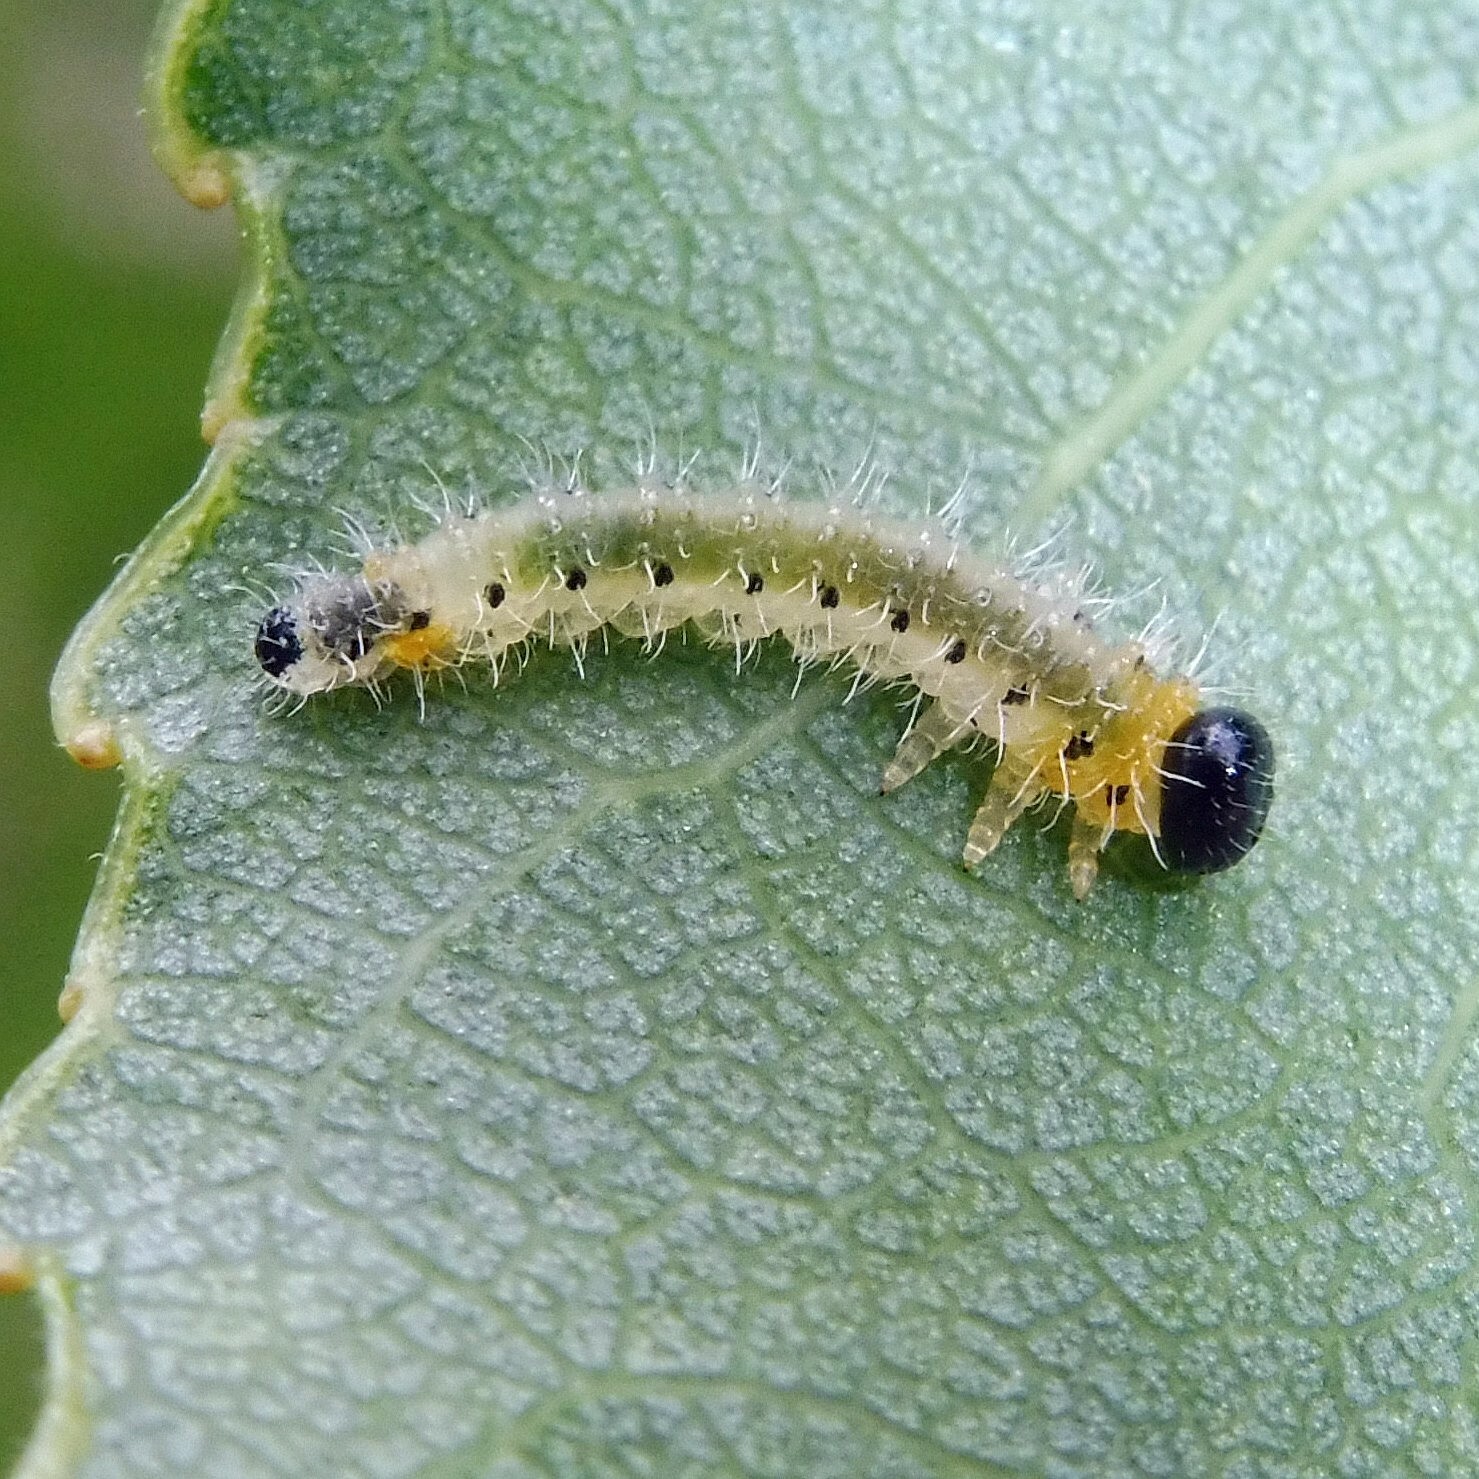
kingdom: Animalia
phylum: Arthropoda
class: Insecta
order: Hymenoptera
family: Tenthredinidae
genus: Cladius
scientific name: Cladius grandis
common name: Common sawfly
